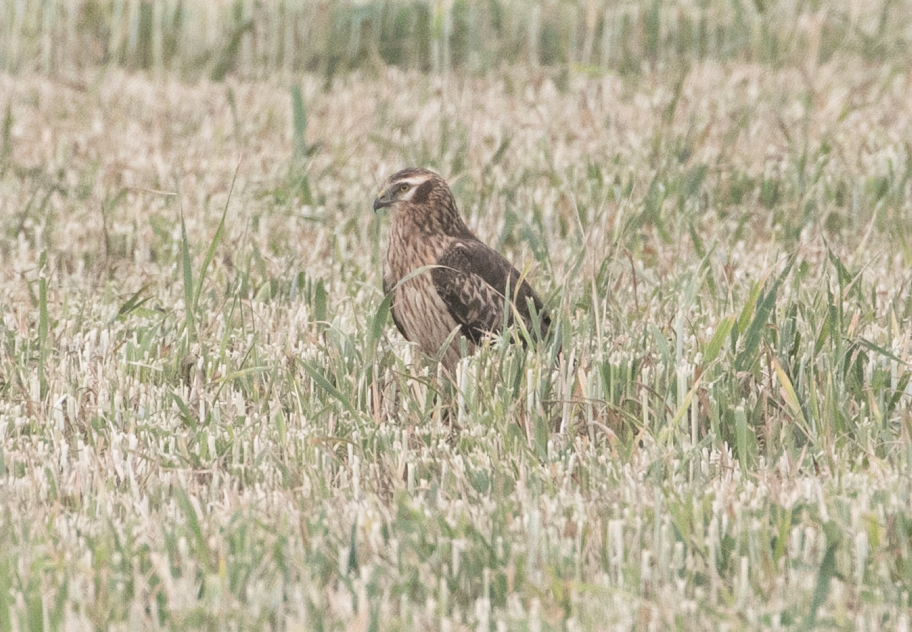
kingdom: Animalia
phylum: Chordata
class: Aves
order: Accipitriformes
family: Accipitridae
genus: Circus
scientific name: Circus pygargus
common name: Montagu's harrier
